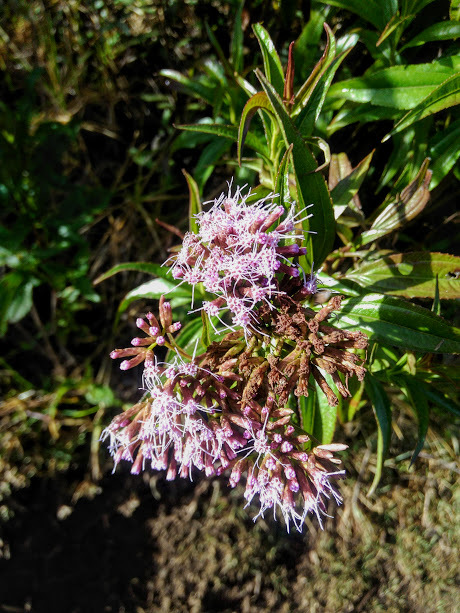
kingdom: Plantae
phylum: Tracheophyta
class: Magnoliopsida
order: Asterales
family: Asteraceae
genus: Chromolaena
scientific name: Chromolaena perglabra
